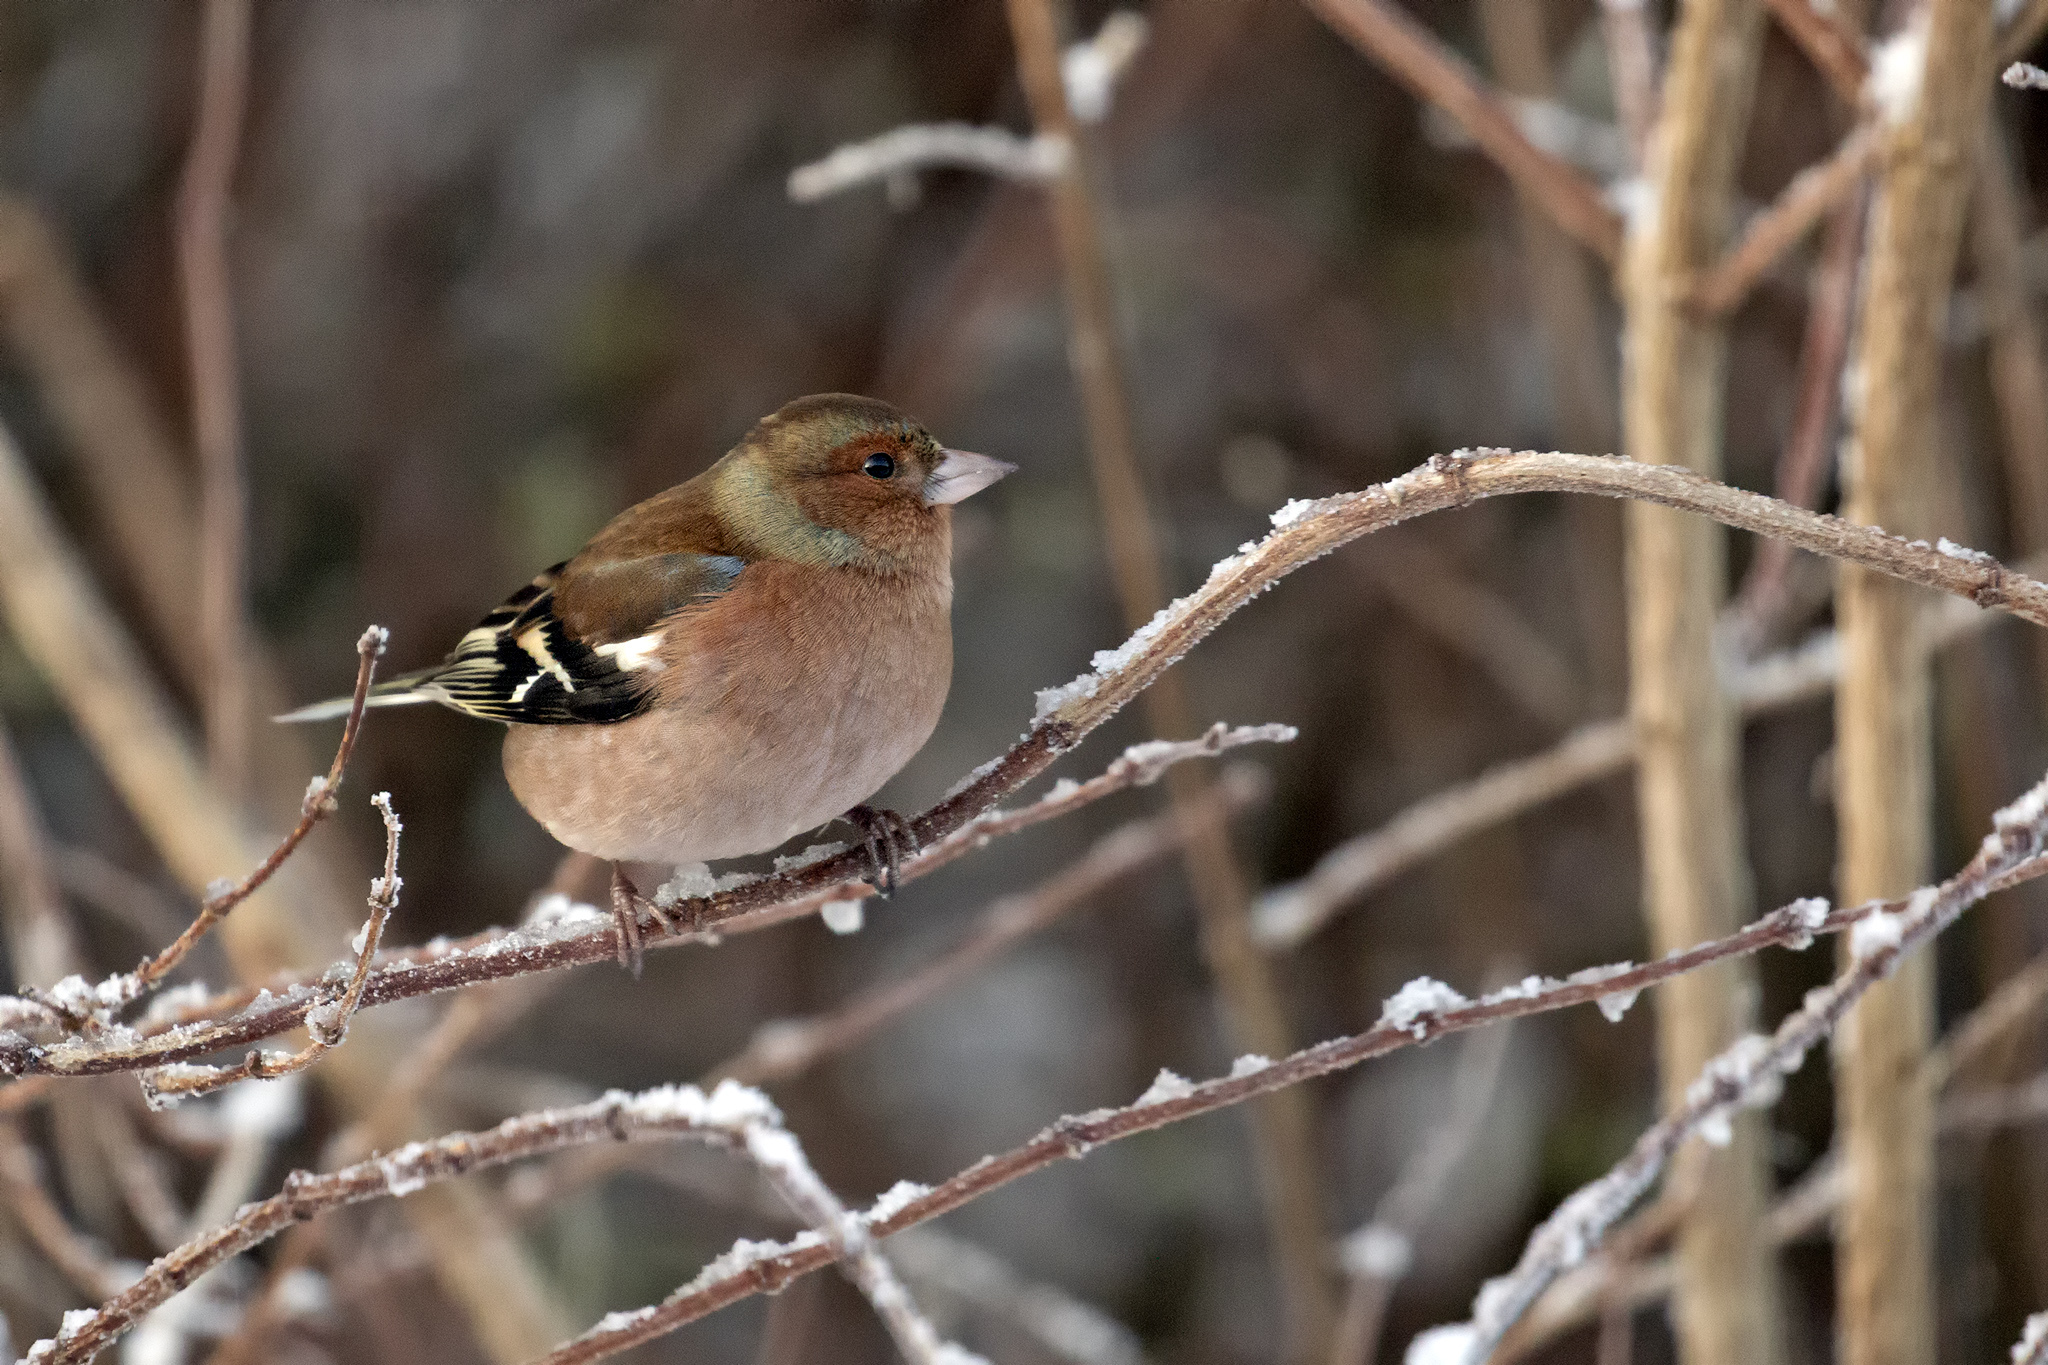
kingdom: Animalia
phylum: Chordata
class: Aves
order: Passeriformes
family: Fringillidae
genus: Fringilla
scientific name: Fringilla coelebs
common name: Common chaffinch
